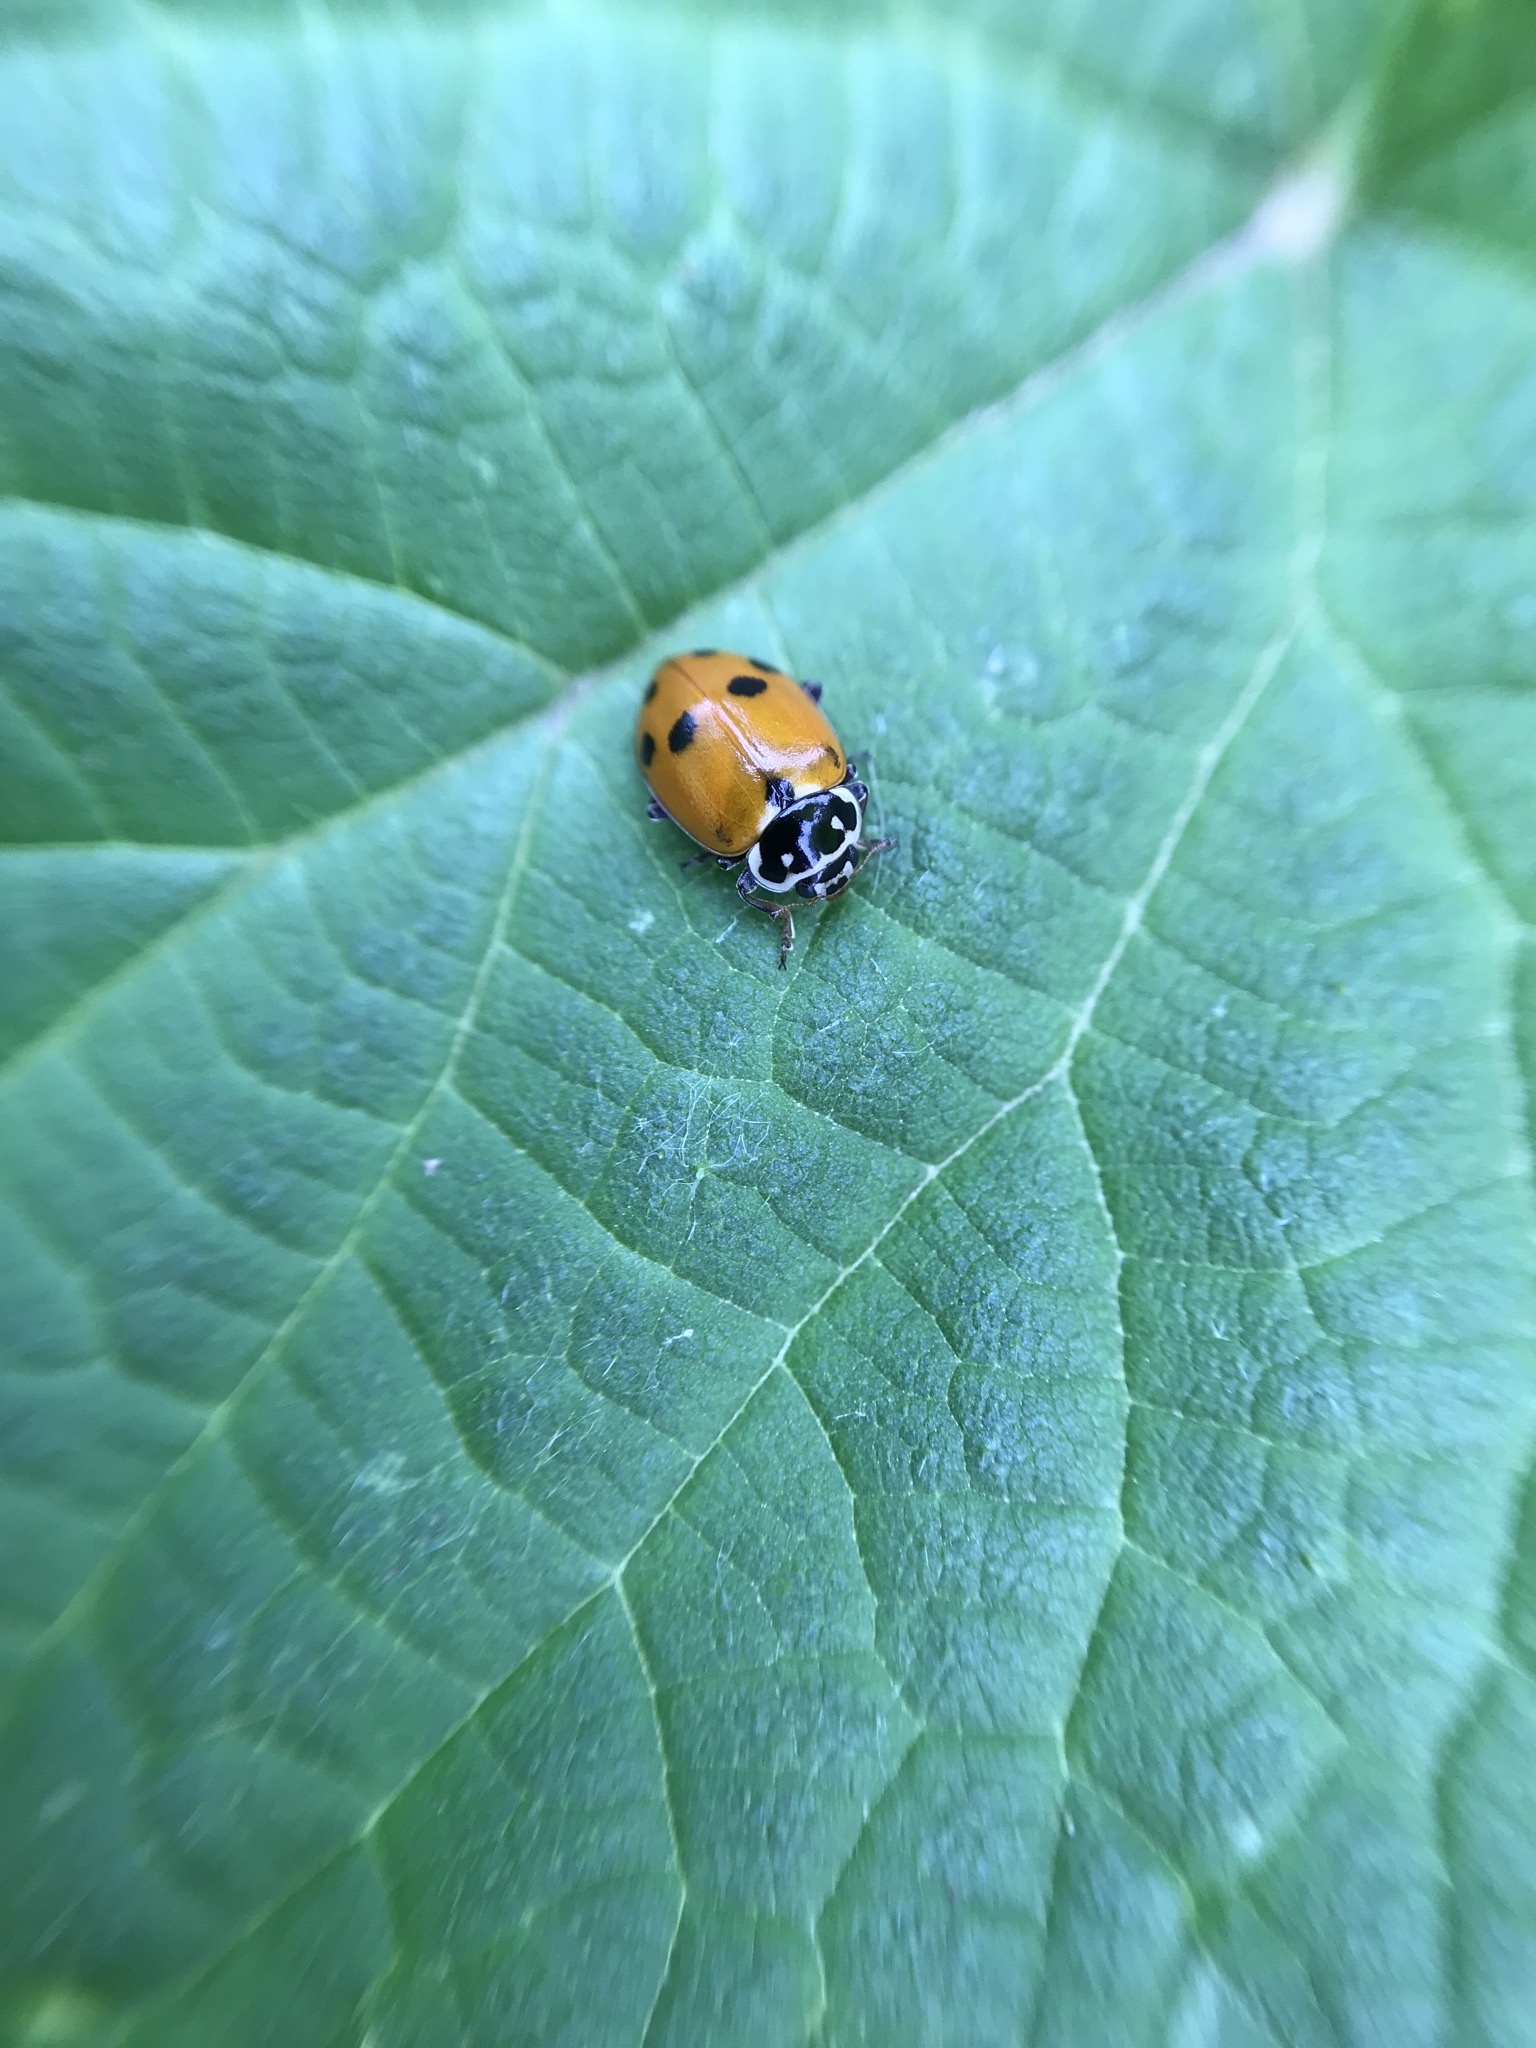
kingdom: Animalia
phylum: Arthropoda
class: Insecta
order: Coleoptera
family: Coccinellidae
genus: Hippodamia
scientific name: Hippodamia variegata
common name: Ladybird beetle
